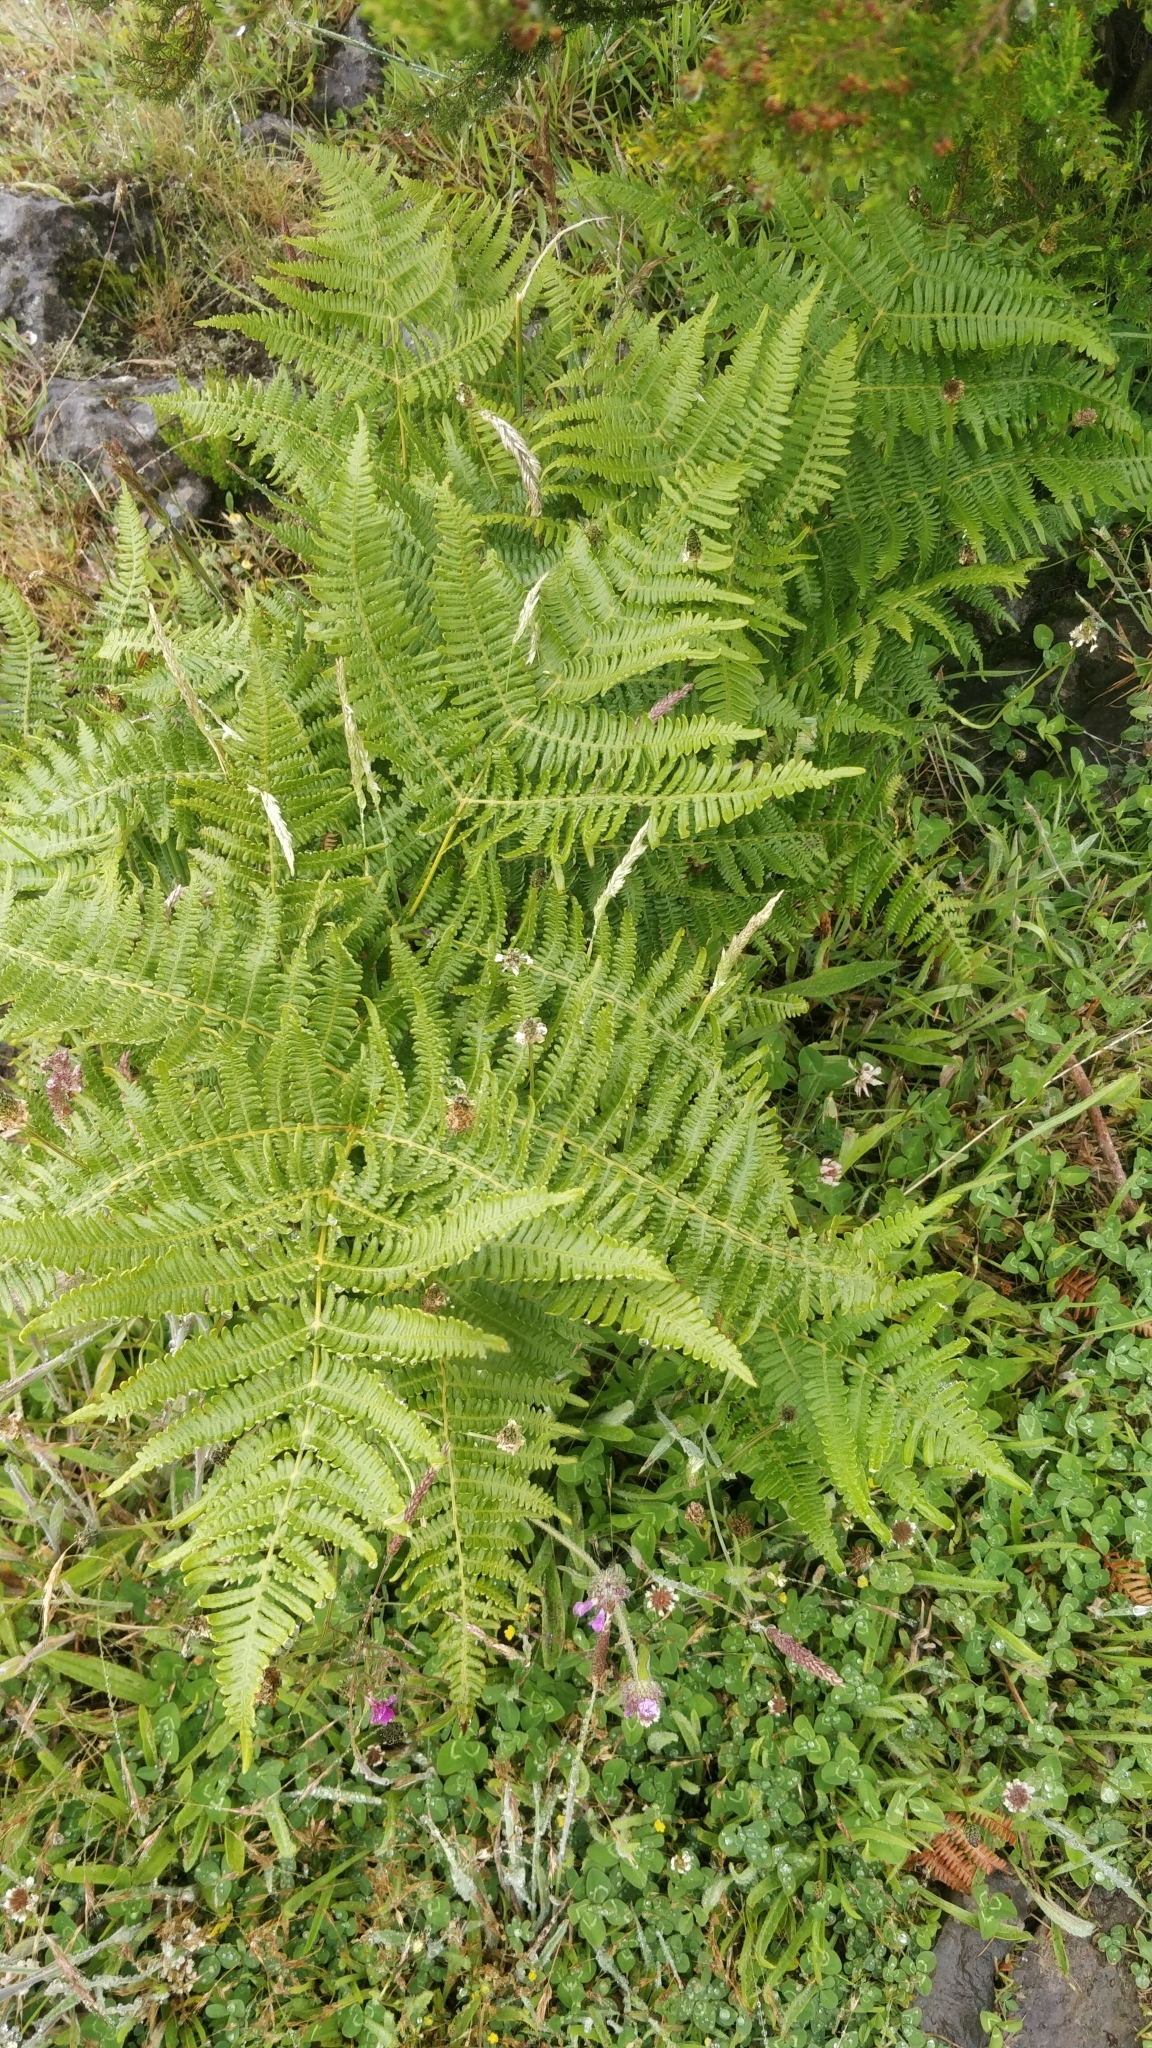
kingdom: Plantae
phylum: Tracheophyta
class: Polypodiopsida
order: Polypodiales
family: Dennstaedtiaceae
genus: Pteridium
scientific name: Pteridium aquilinum
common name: Bracken
